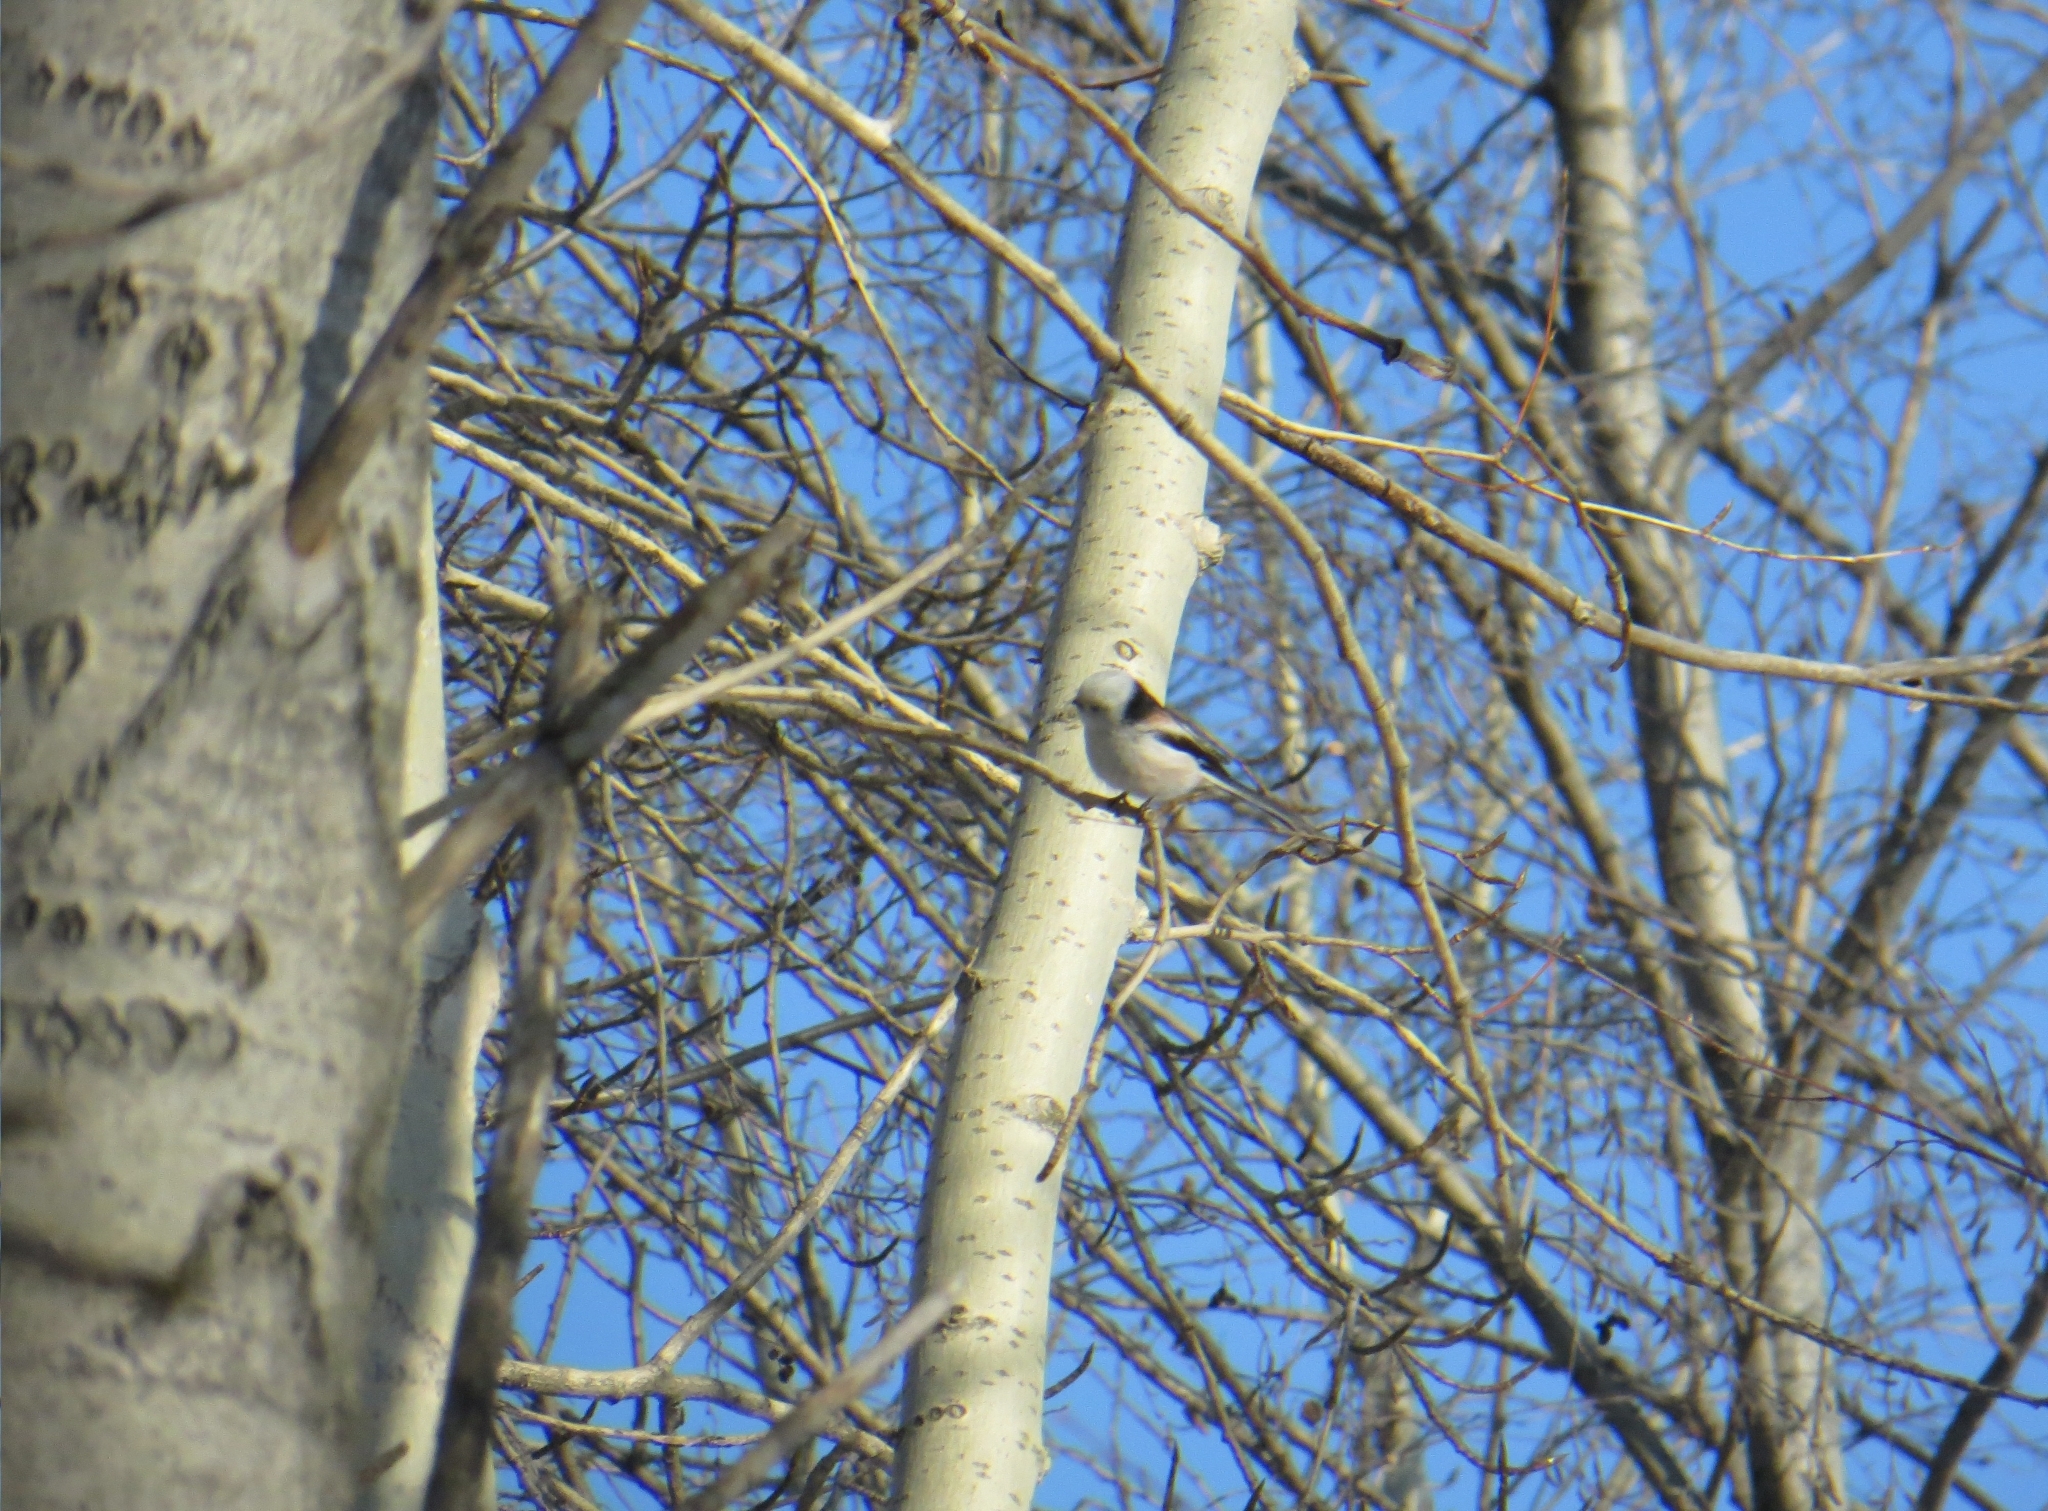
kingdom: Animalia
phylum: Chordata
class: Aves
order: Passeriformes
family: Aegithalidae
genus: Aegithalos
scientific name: Aegithalos caudatus
